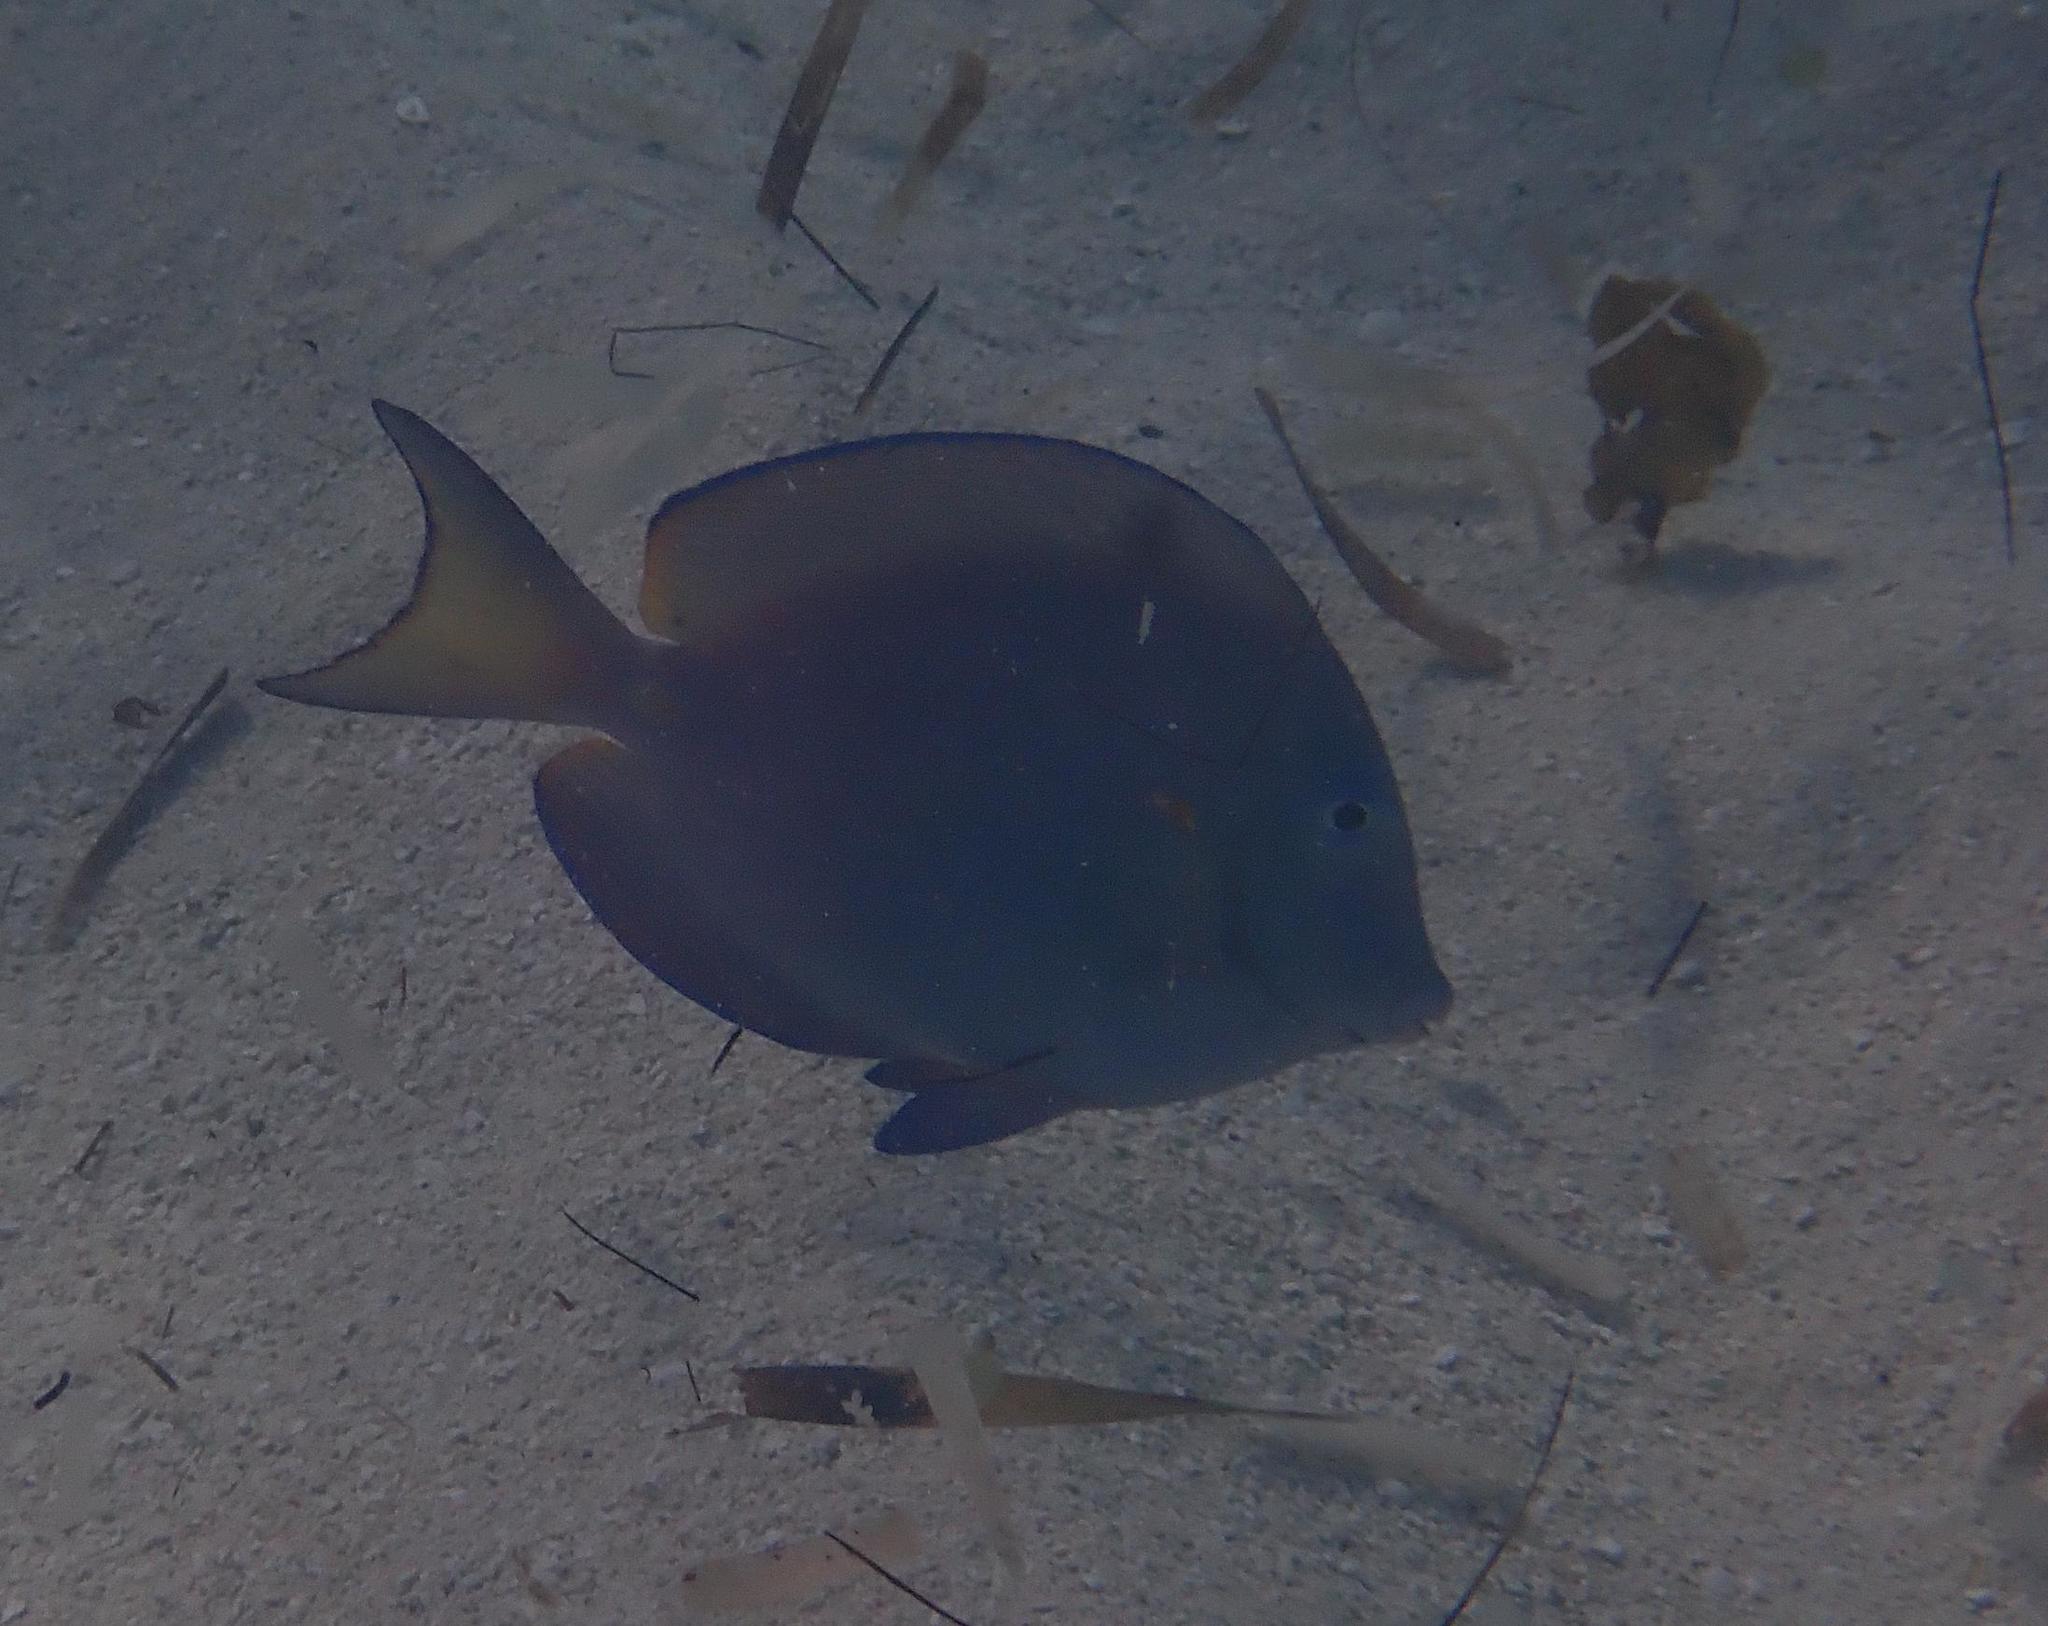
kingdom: Animalia
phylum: Chordata
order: Perciformes
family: Acanthuridae
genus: Acanthurus
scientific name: Acanthurus coeruleus
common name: Blue tang
